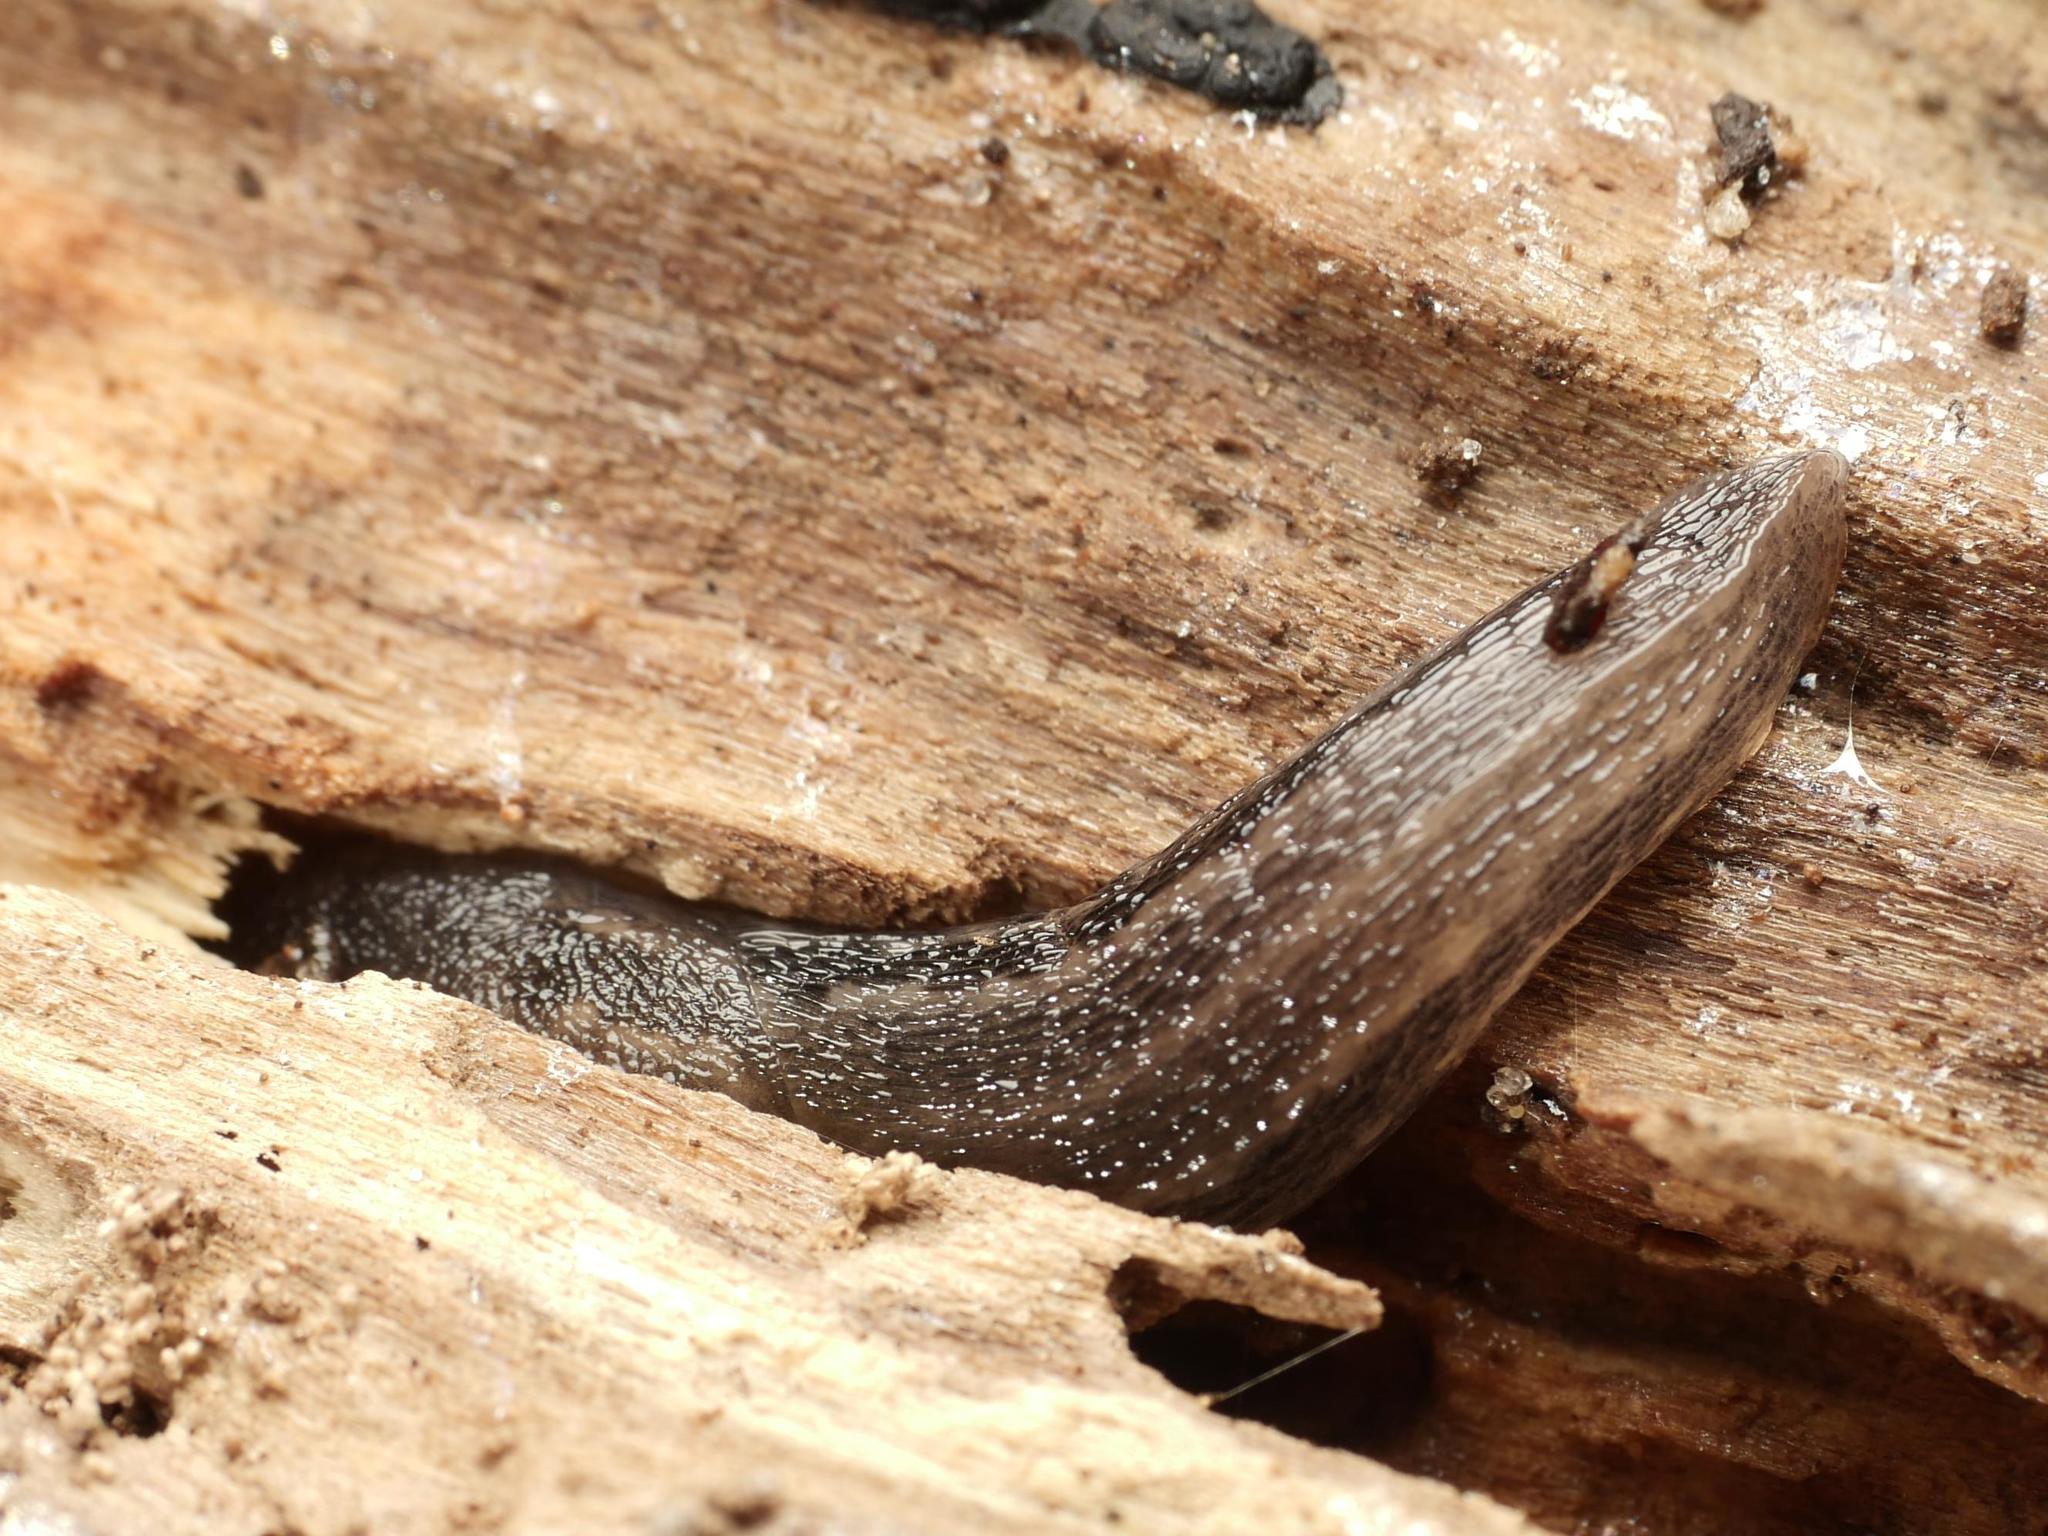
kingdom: Animalia
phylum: Mollusca
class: Gastropoda
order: Stylommatophora
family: Limacidae
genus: Limax
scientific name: Limax maximus
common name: Great grey slug
